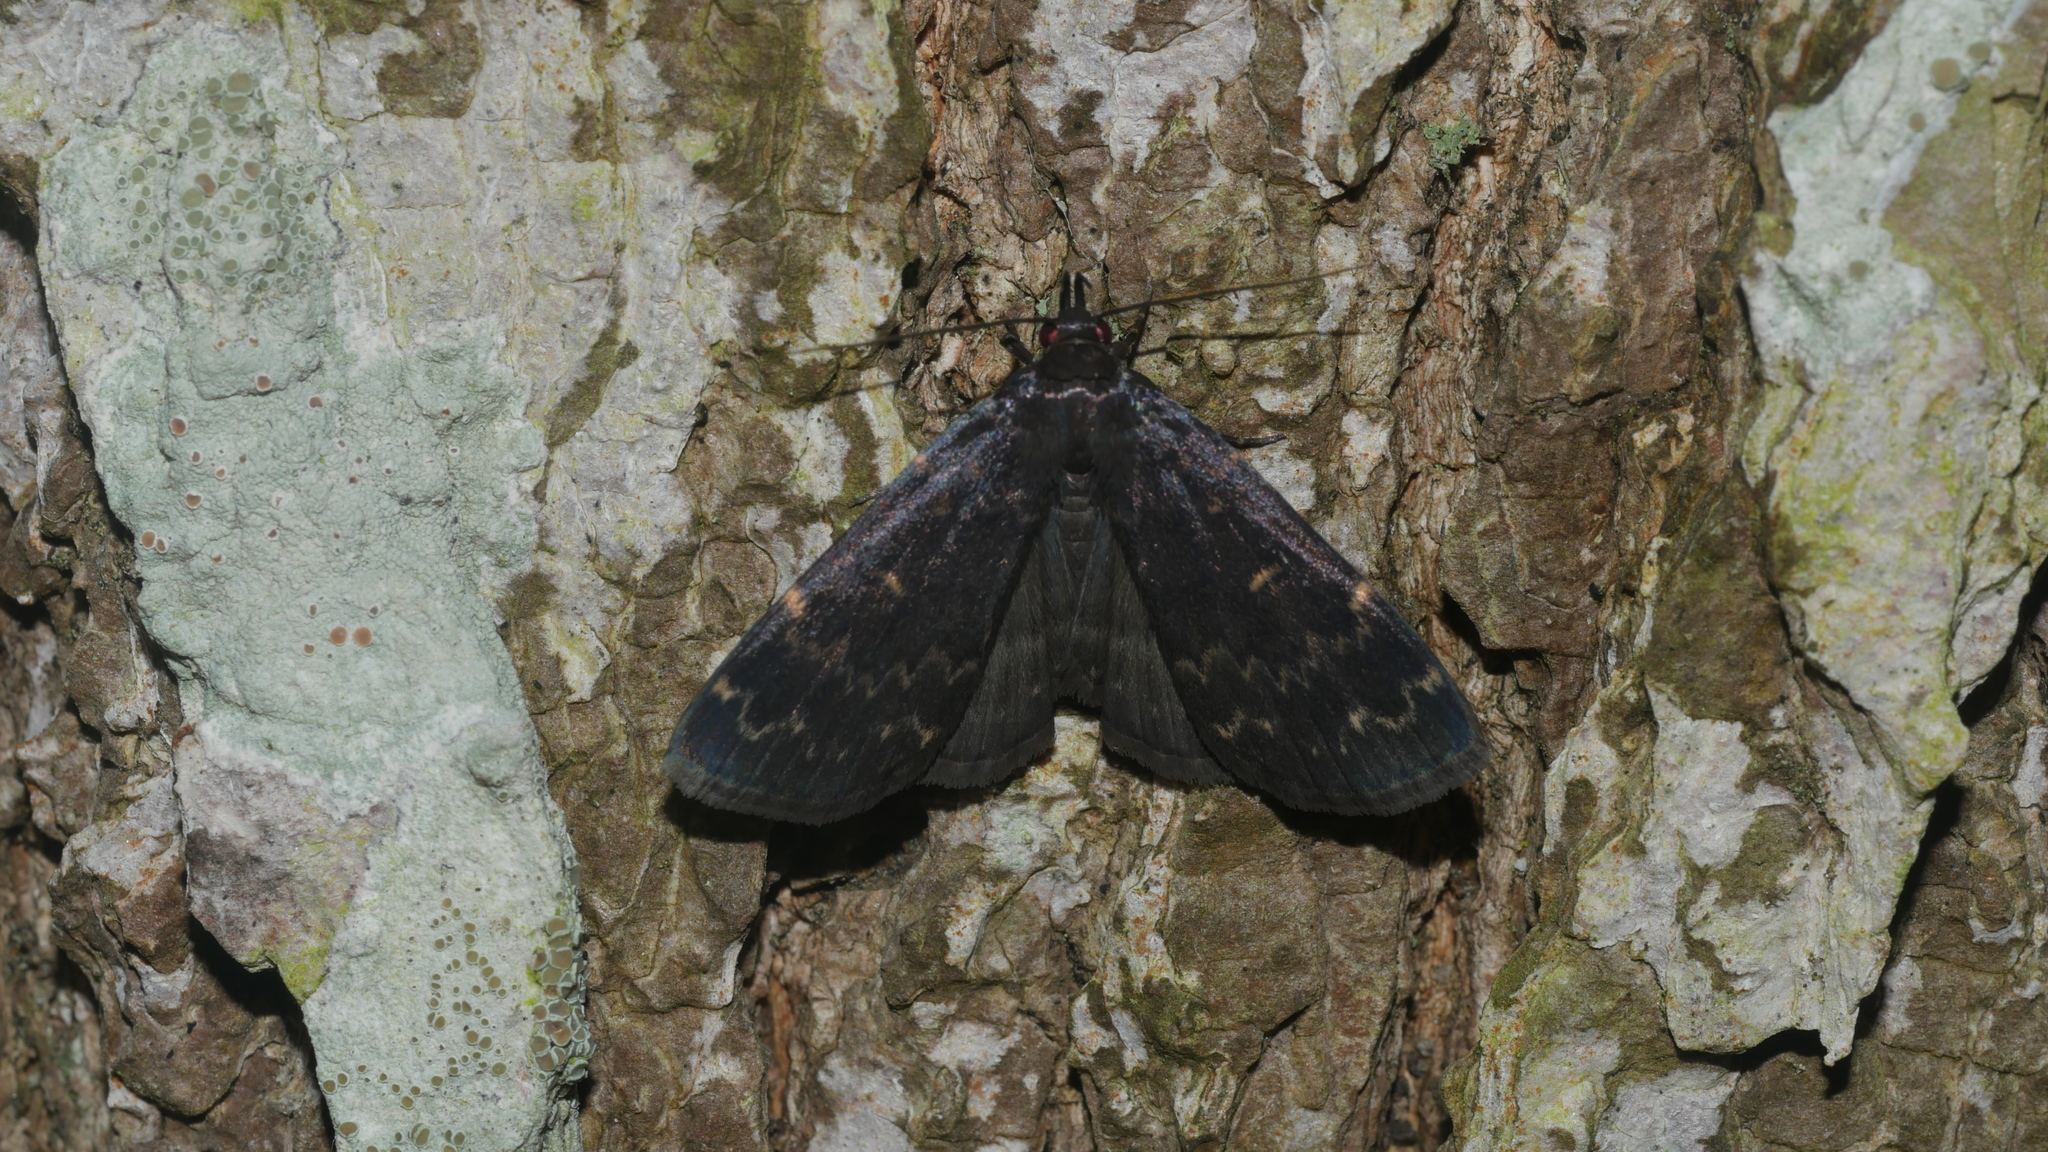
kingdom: Animalia
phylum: Arthropoda
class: Insecta
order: Lepidoptera
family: Erebidae
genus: Idia
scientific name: Idia lubricalis
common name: Twin-striped tabby
